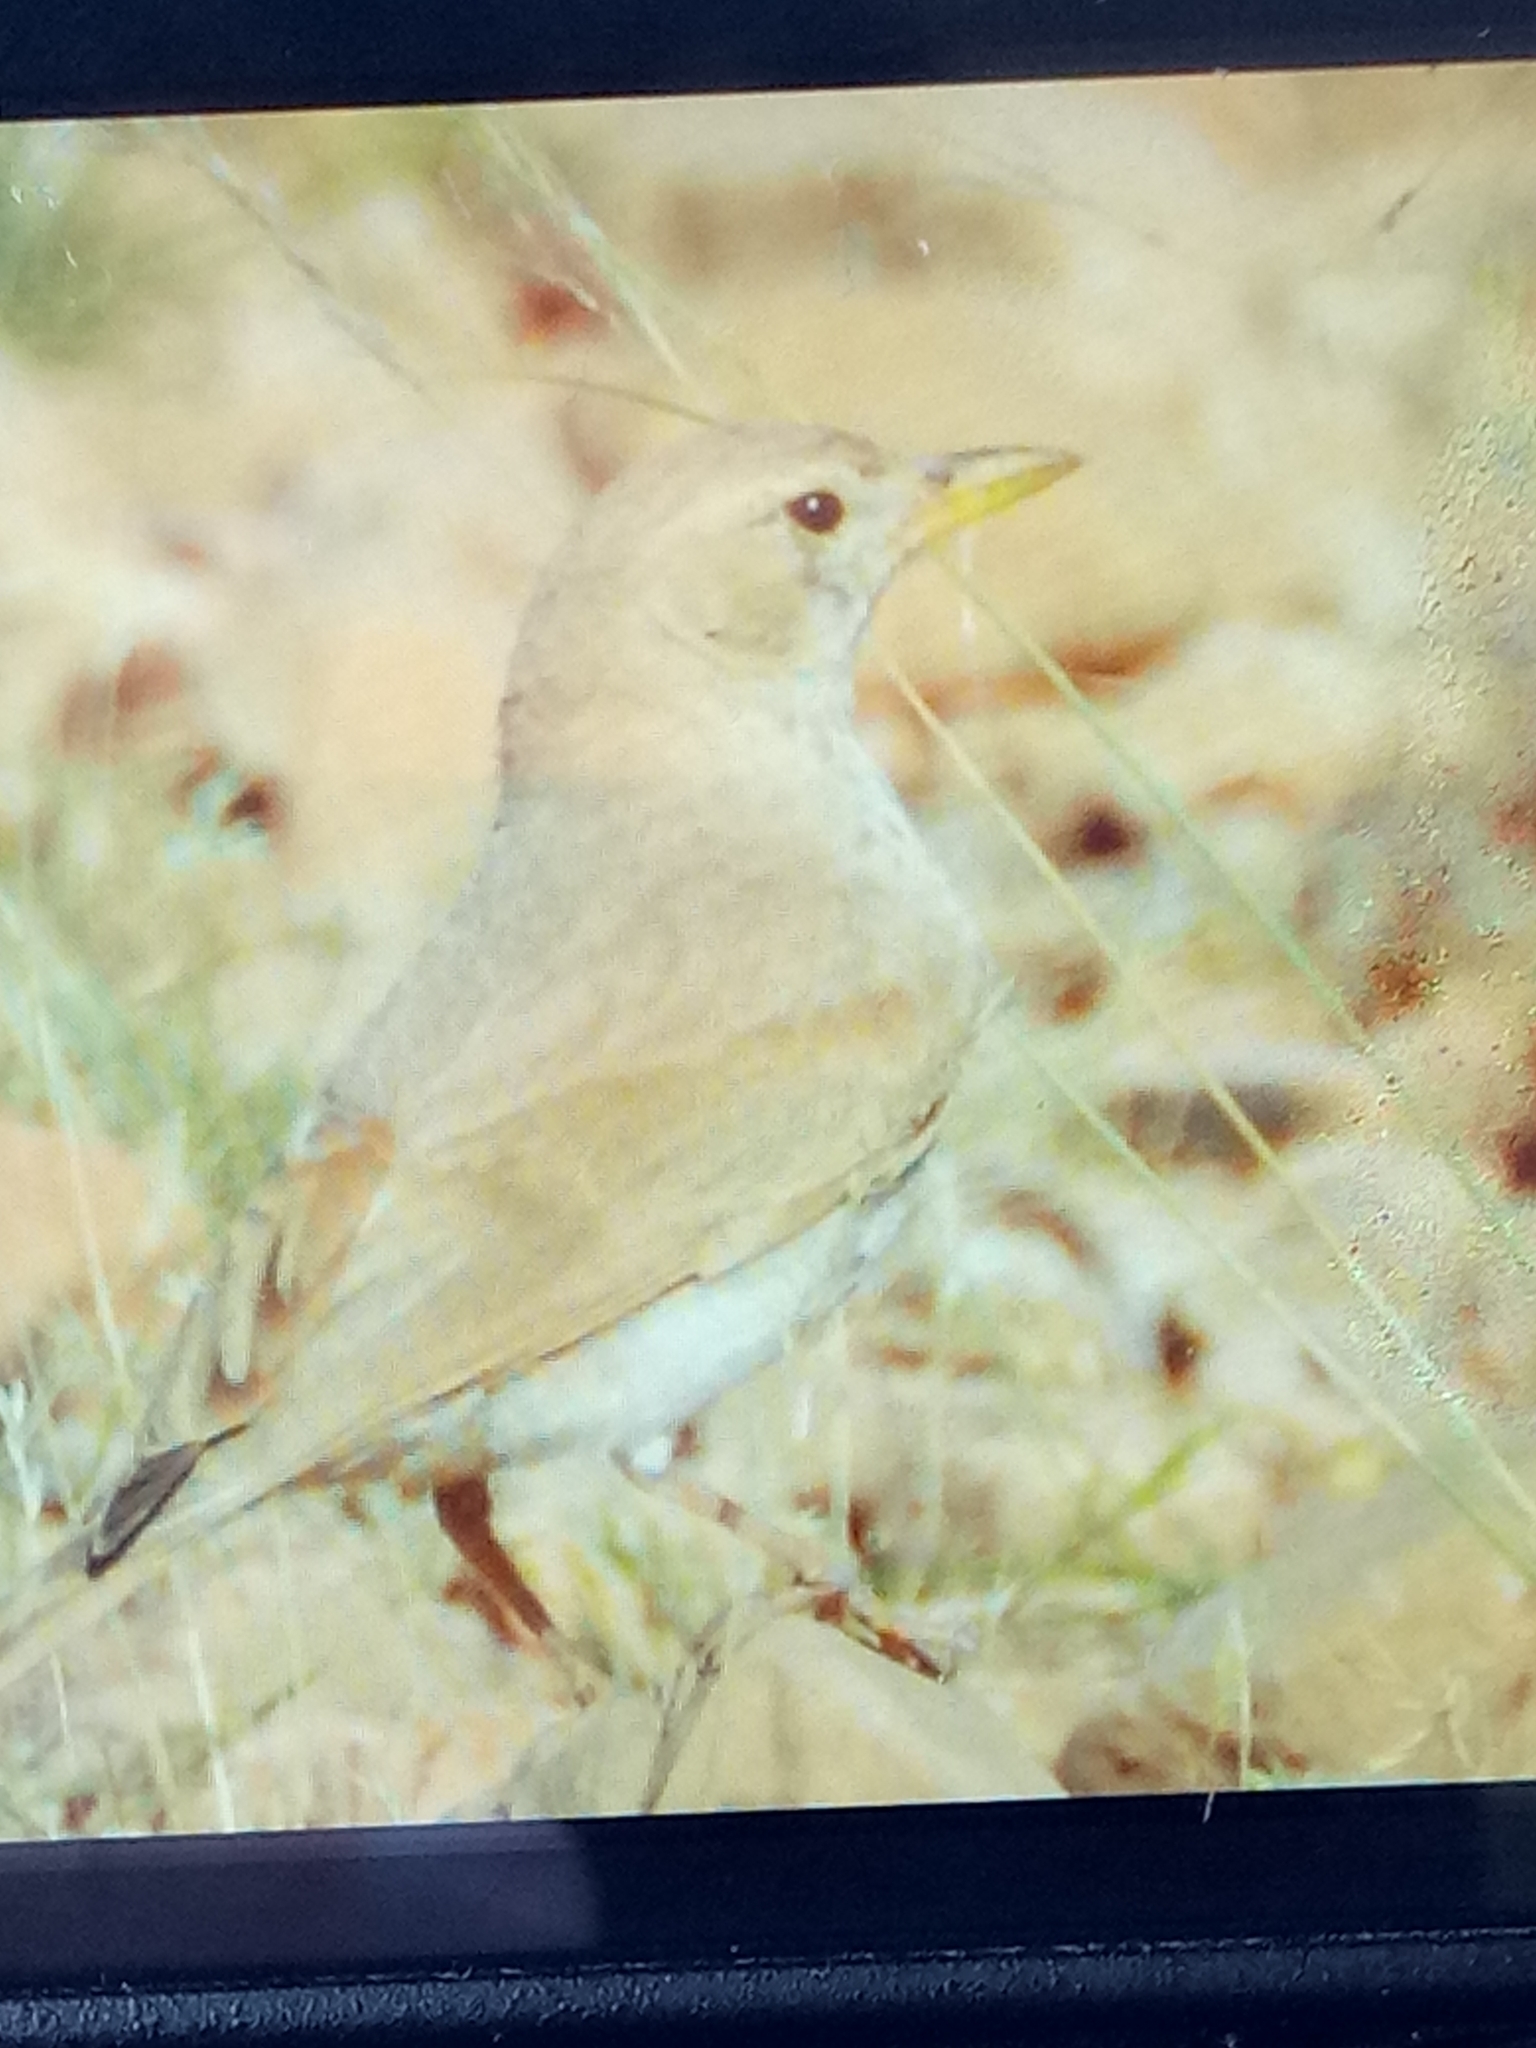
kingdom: Animalia
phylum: Chordata
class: Aves
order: Passeriformes
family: Alaudidae
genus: Ammomanes
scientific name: Ammomanes deserti
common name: Desert lark
